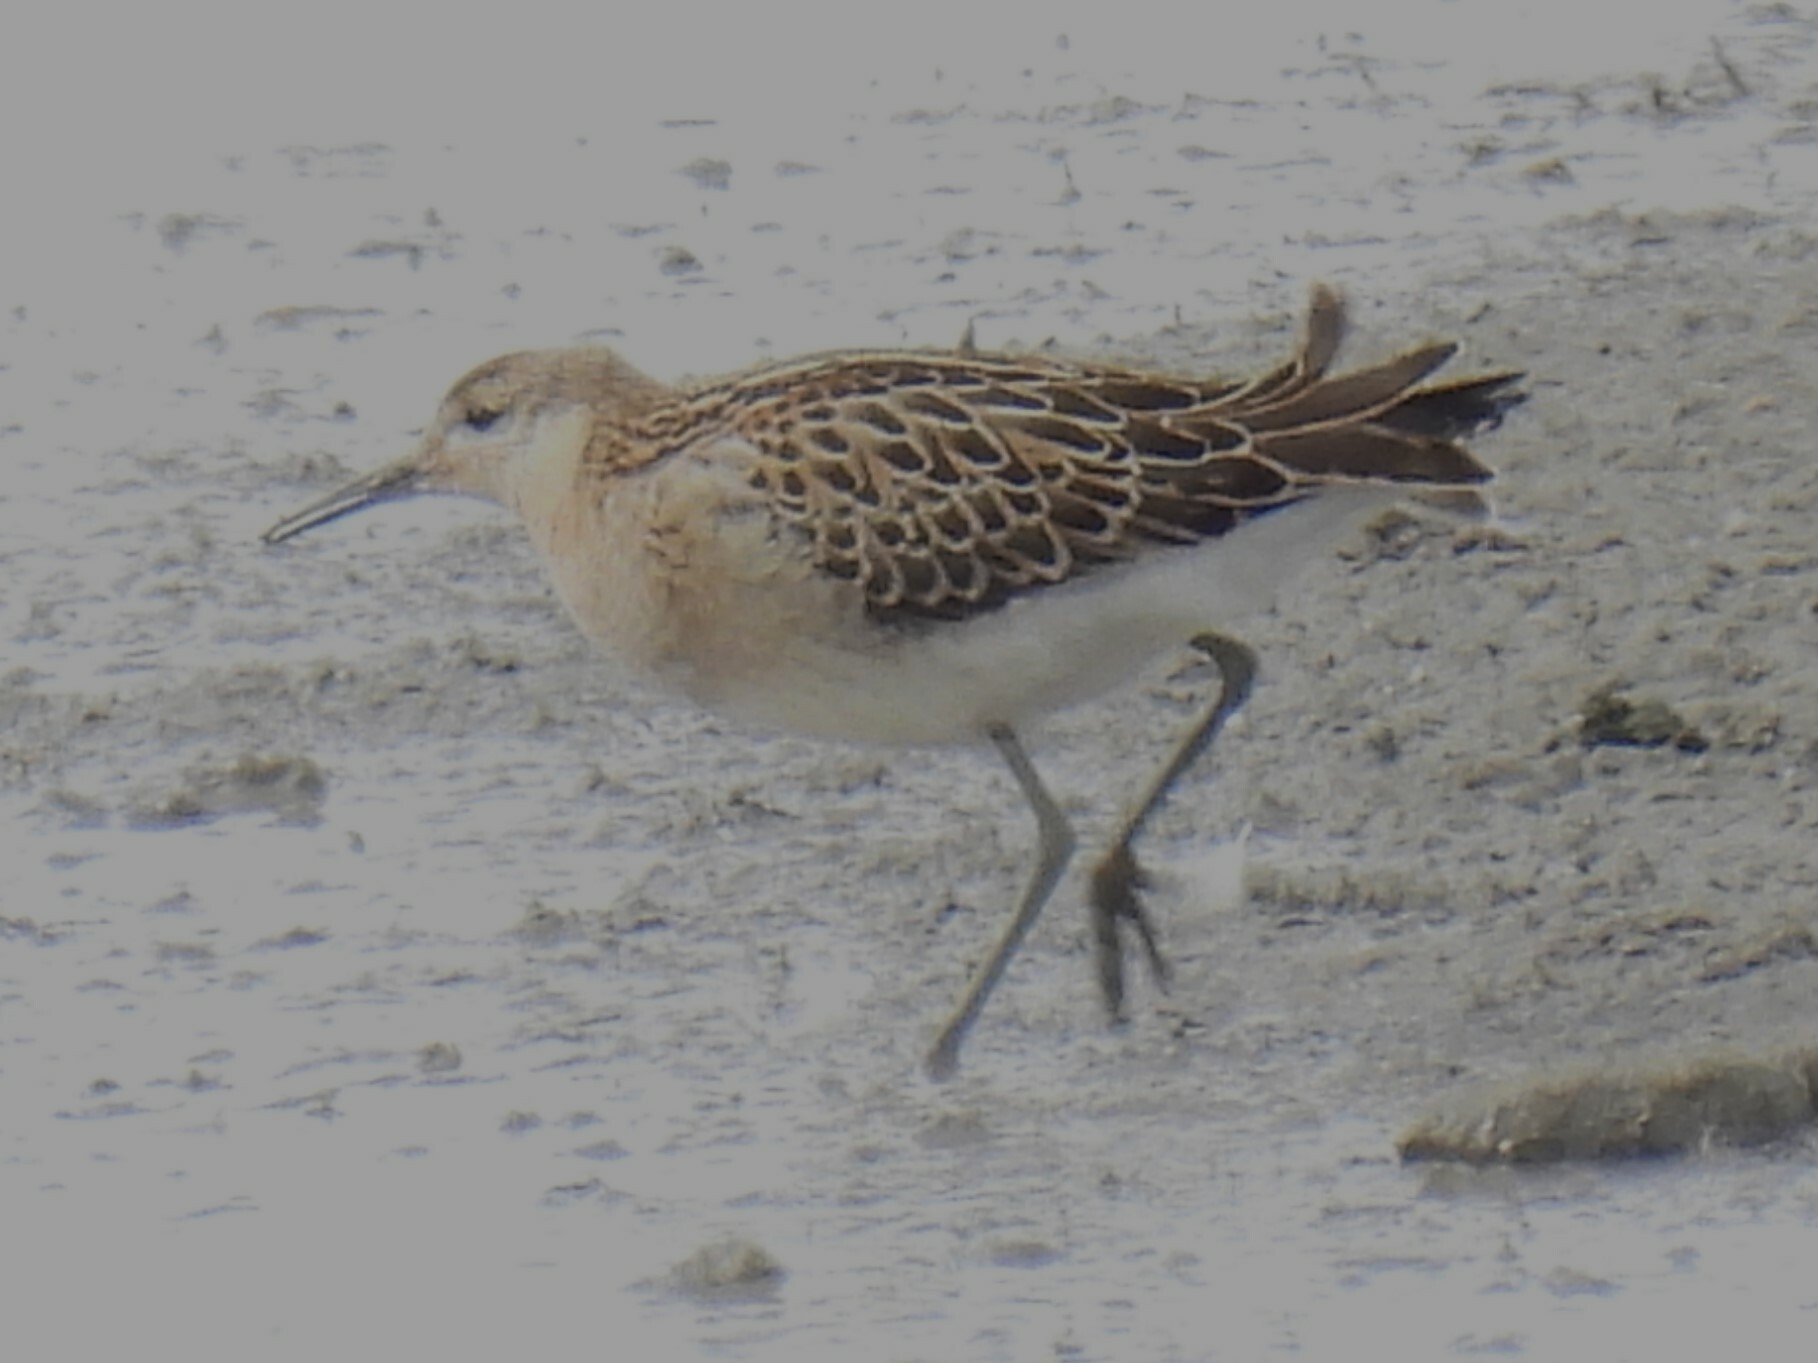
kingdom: Animalia
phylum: Chordata
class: Aves
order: Charadriiformes
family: Scolopacidae
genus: Calidris
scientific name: Calidris pugnax
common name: Ruff
